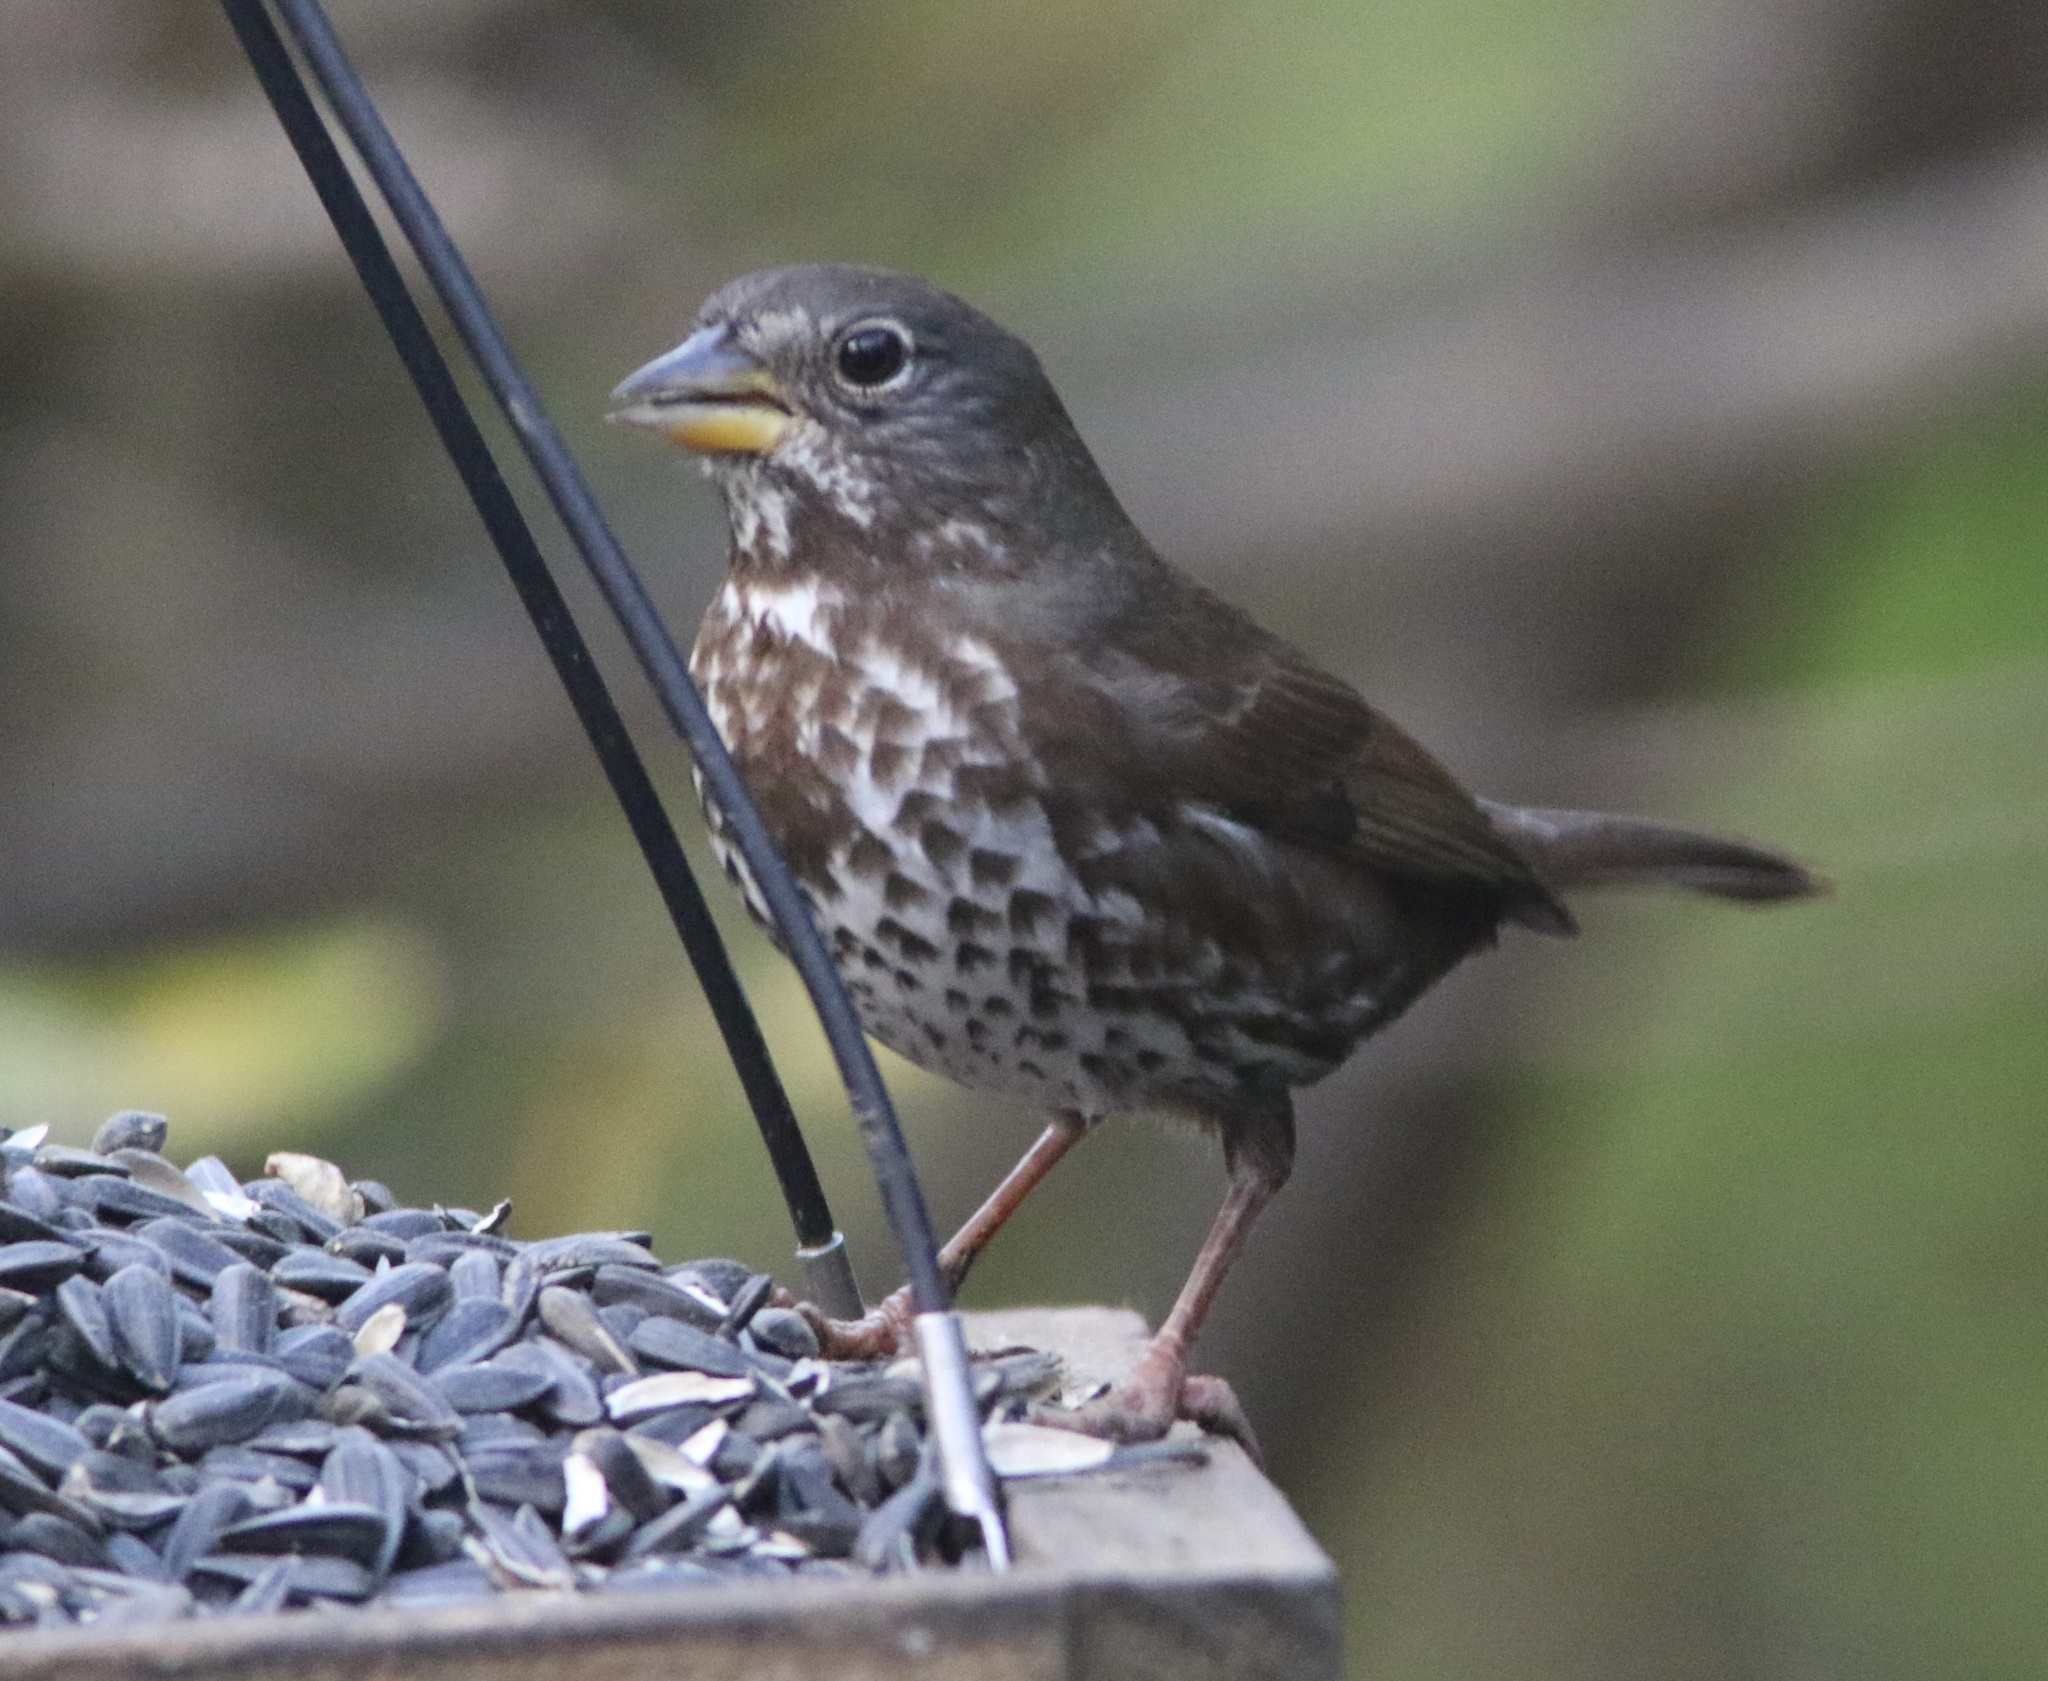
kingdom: Animalia
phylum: Chordata
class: Aves
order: Passeriformes
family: Passerellidae
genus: Passerella
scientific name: Passerella iliaca
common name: Fox sparrow
